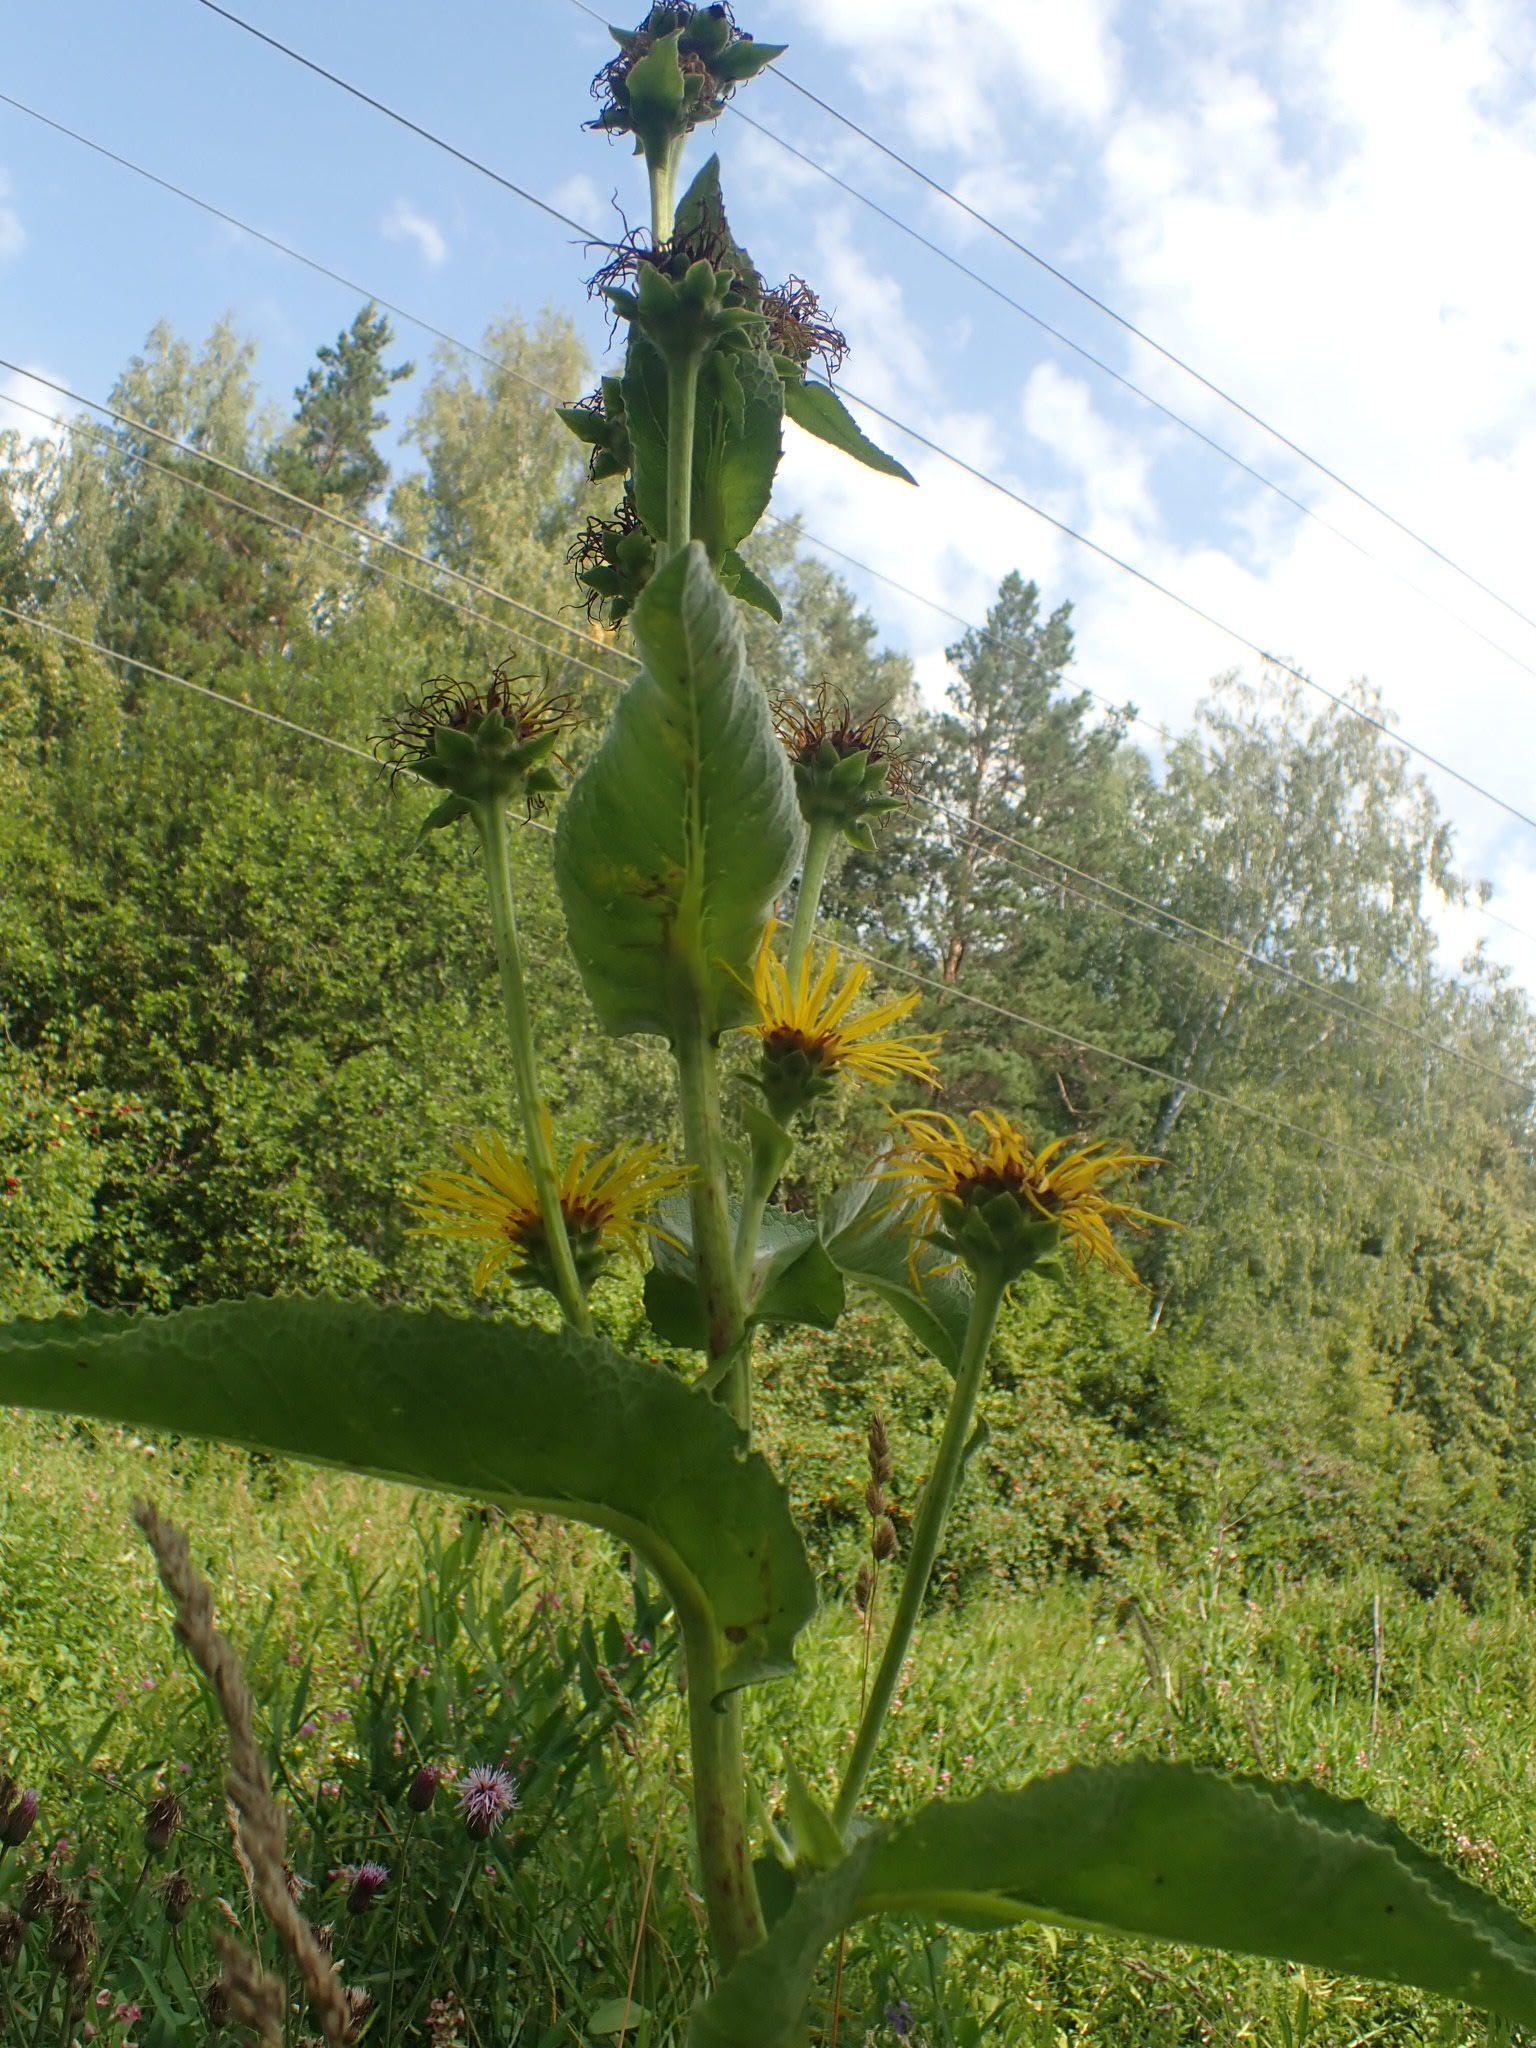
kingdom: Plantae
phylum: Tracheophyta
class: Magnoliopsida
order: Asterales
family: Asteraceae
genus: Inula
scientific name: Inula helenium
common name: Elecampane
